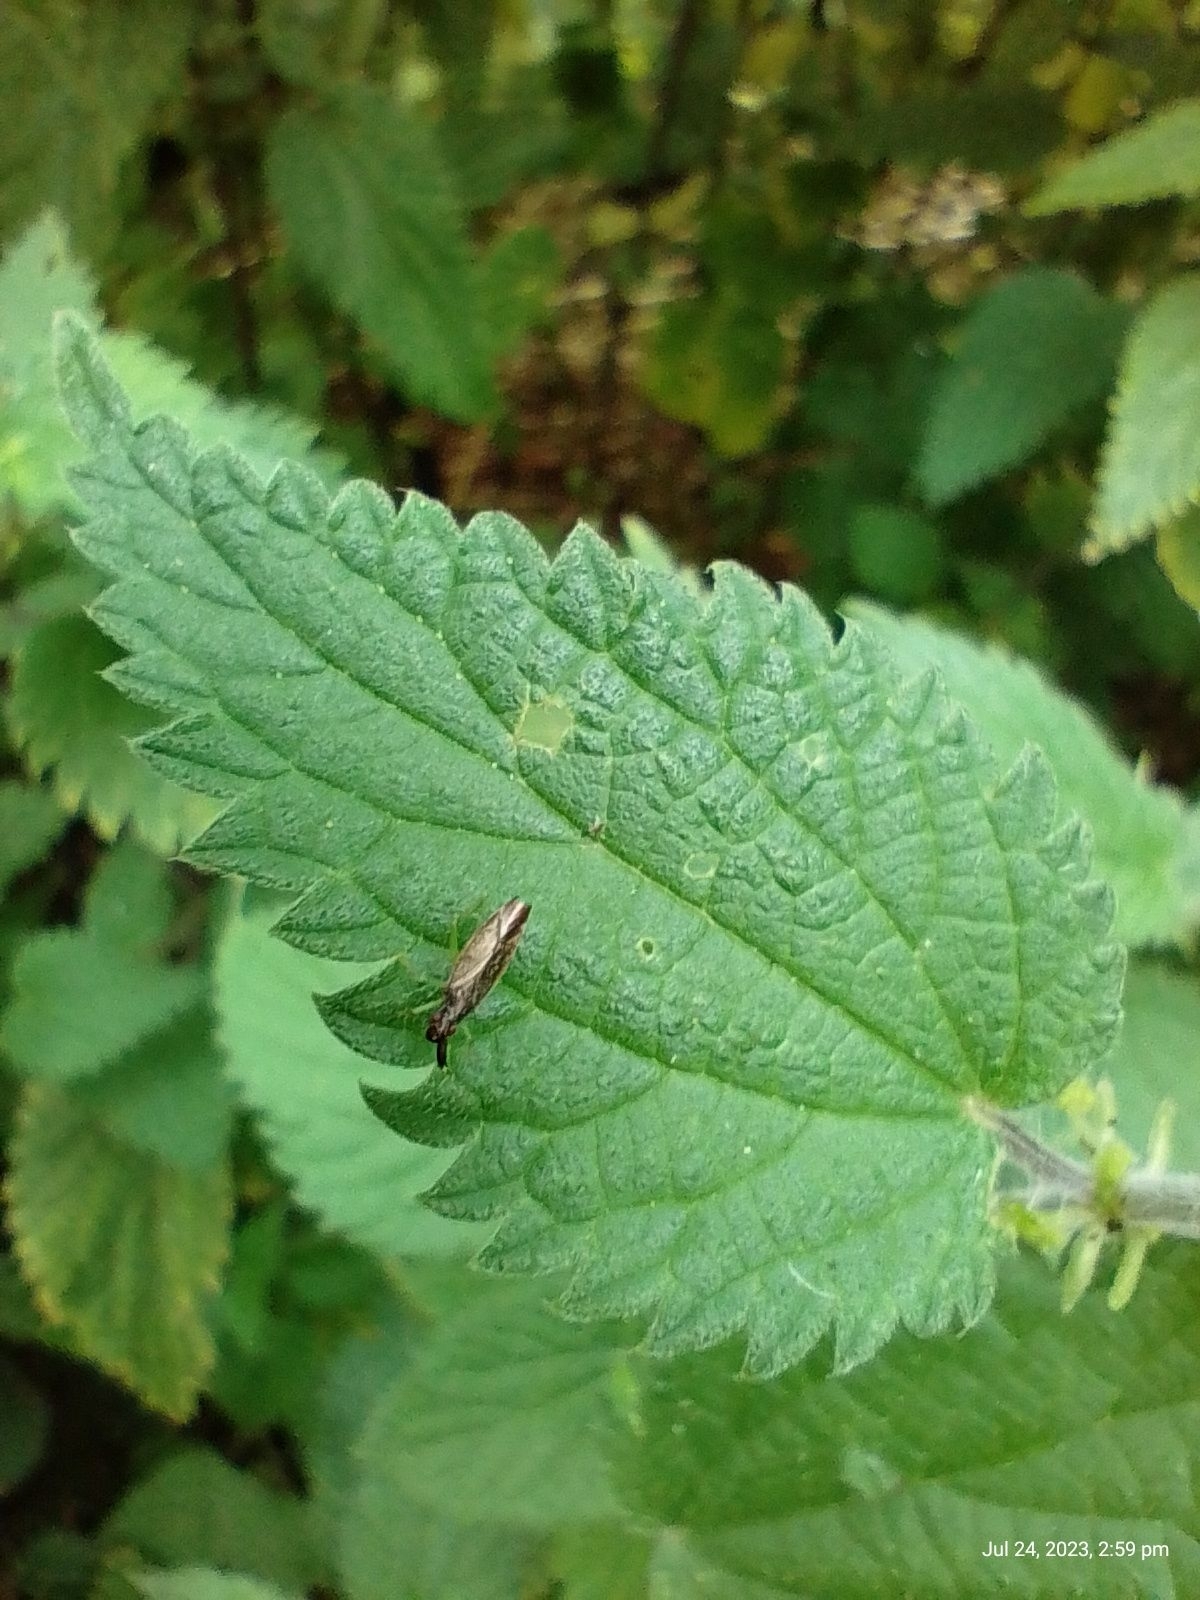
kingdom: Animalia
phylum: Arthropoda
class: Insecta
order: Hemiptera
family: Miridae
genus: Heterotoma
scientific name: Heterotoma planicornis
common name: Plant bug
